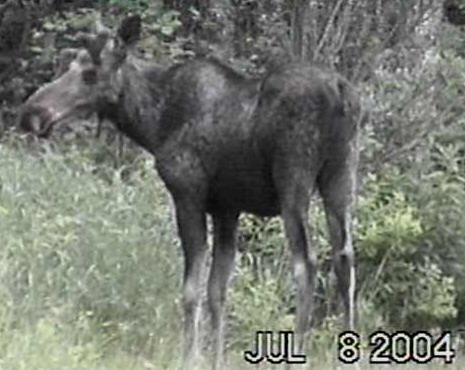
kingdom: Animalia
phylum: Chordata
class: Mammalia
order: Artiodactyla
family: Cervidae
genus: Alces
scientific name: Alces alces
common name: Moose
